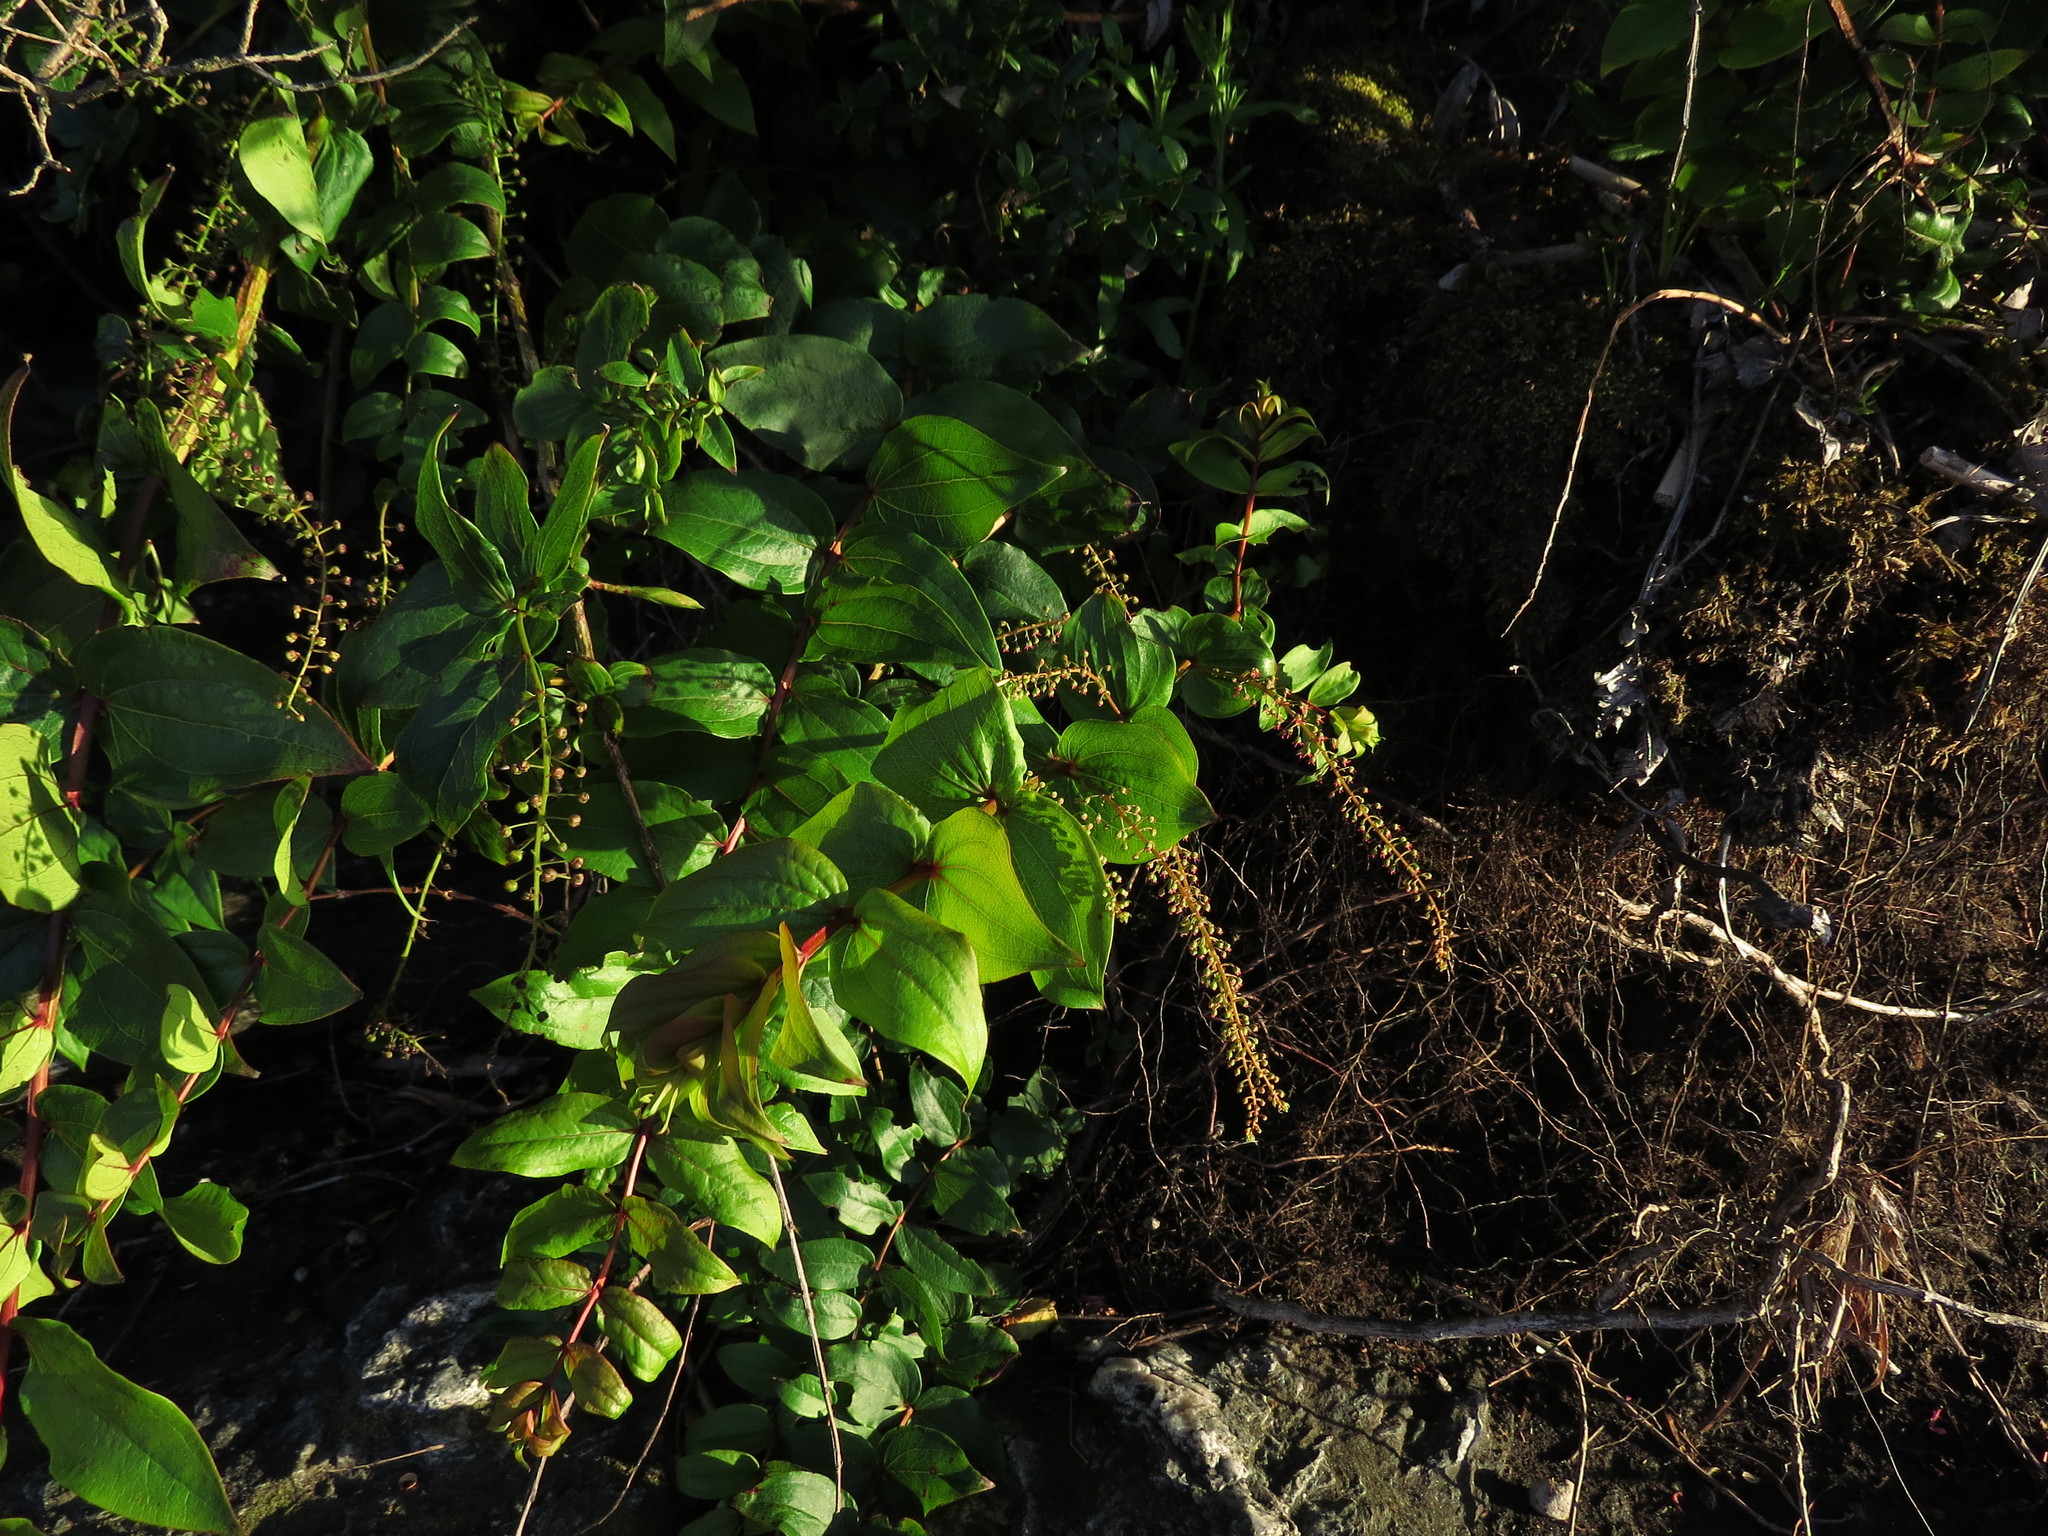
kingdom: Plantae
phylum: Tracheophyta
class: Magnoliopsida
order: Cucurbitales
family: Coriariaceae
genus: Coriaria
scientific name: Coriaria ruscifolia
